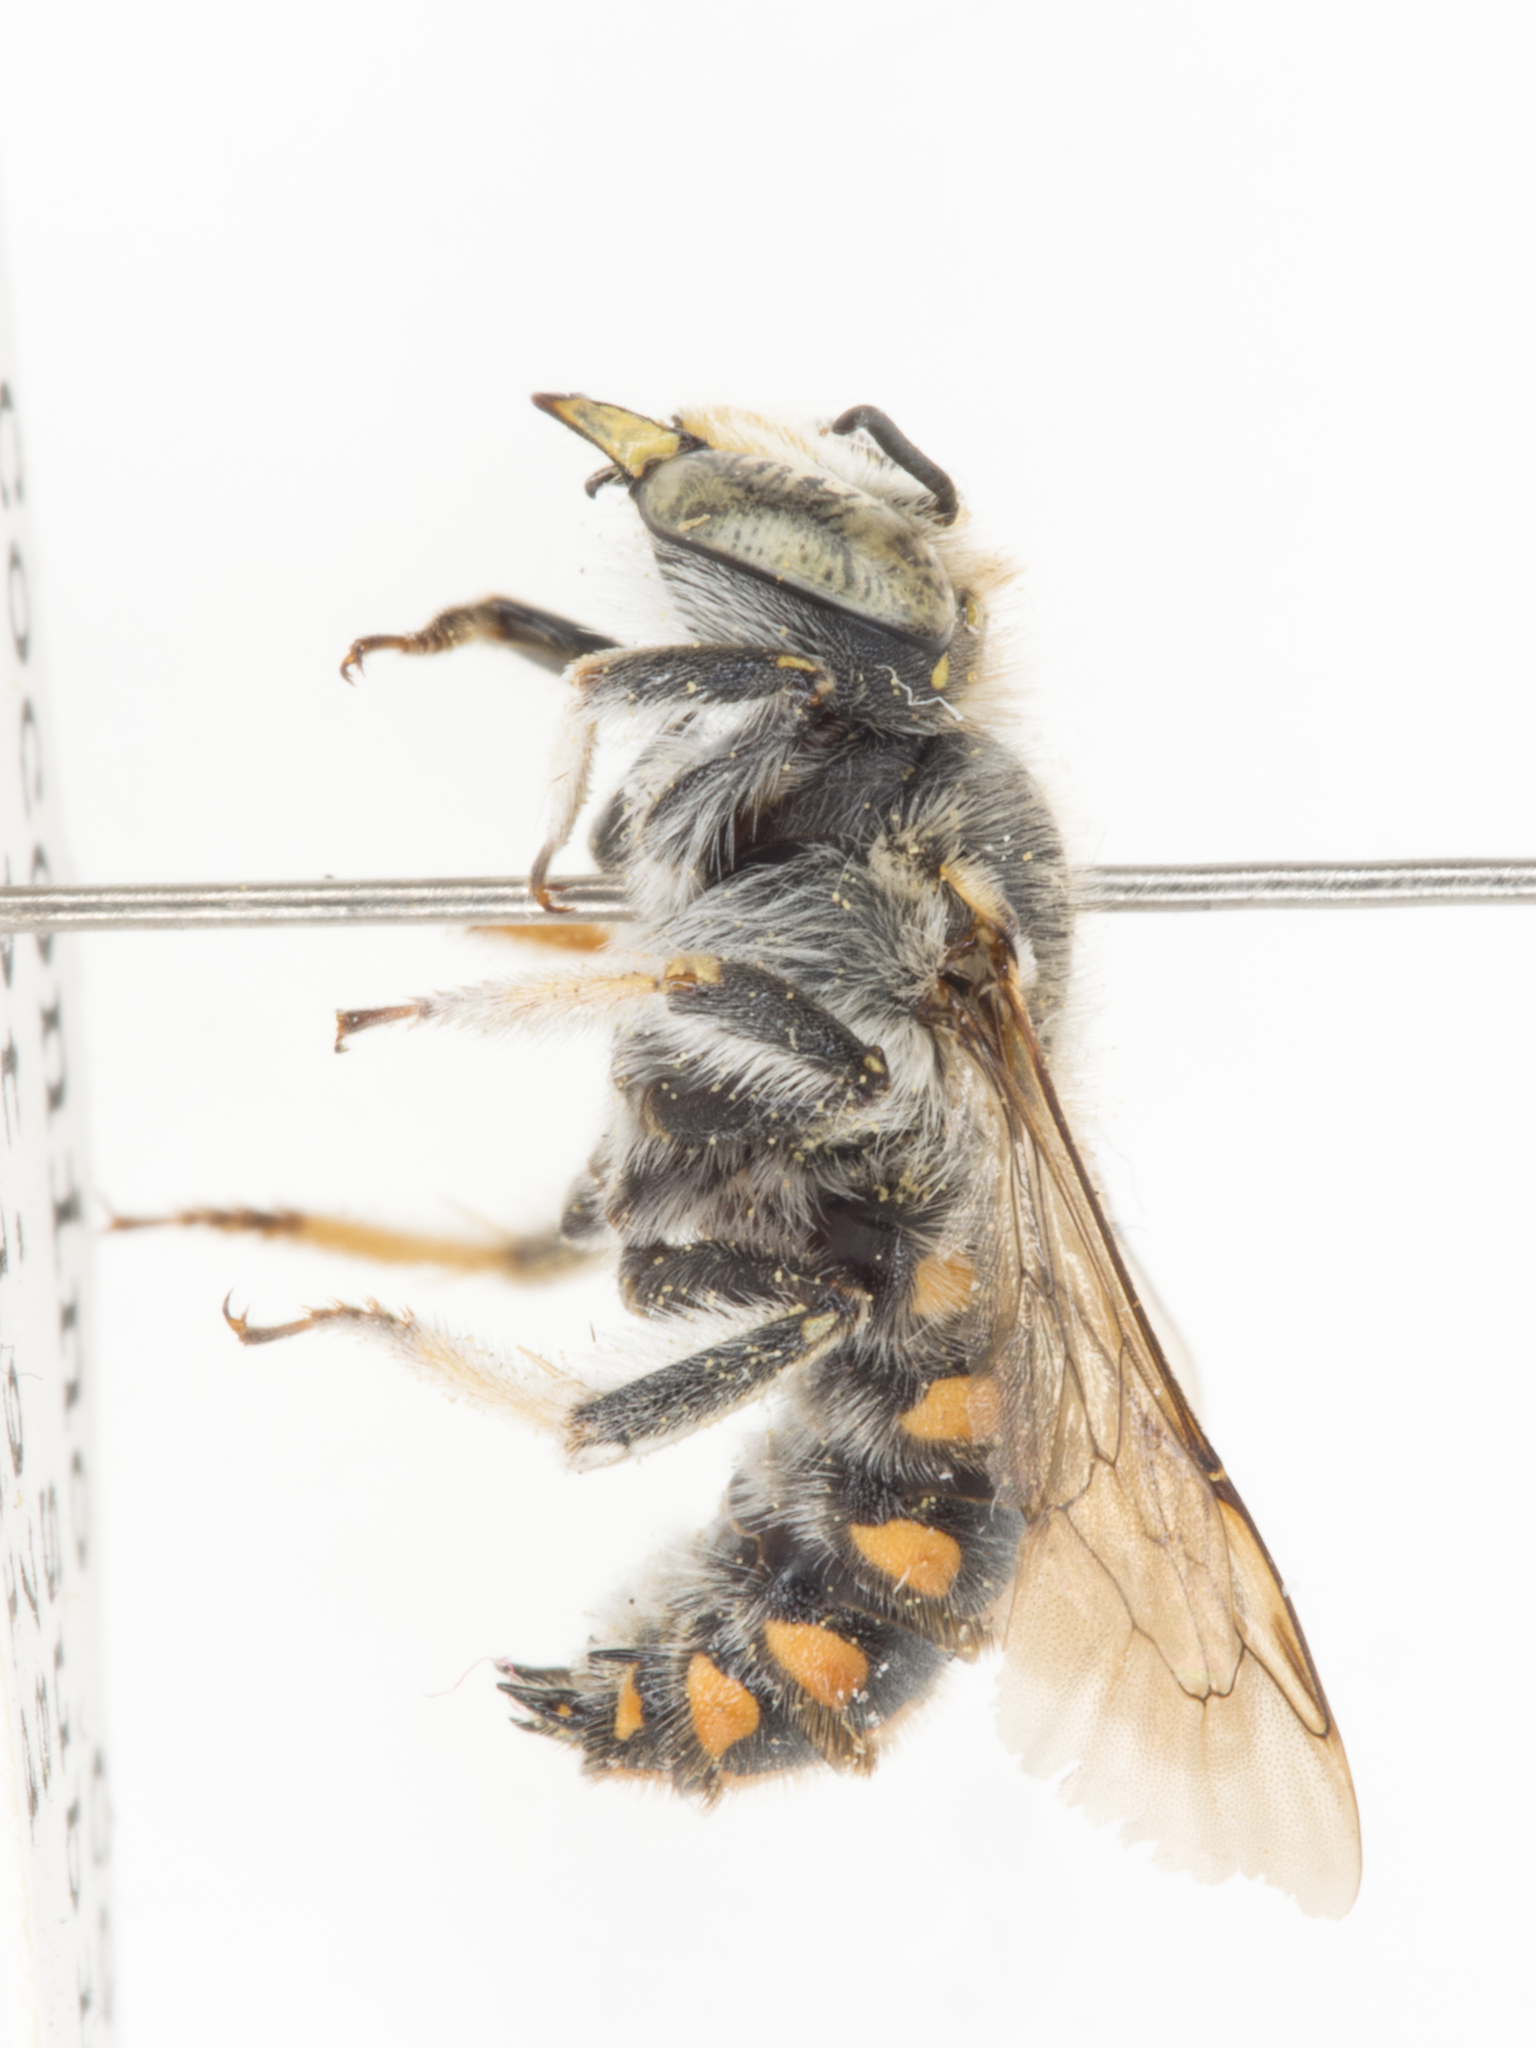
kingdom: Animalia
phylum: Arthropoda
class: Insecta
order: Hymenoptera
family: Megachilidae
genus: Anthidium
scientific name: Anthidium maculosum
